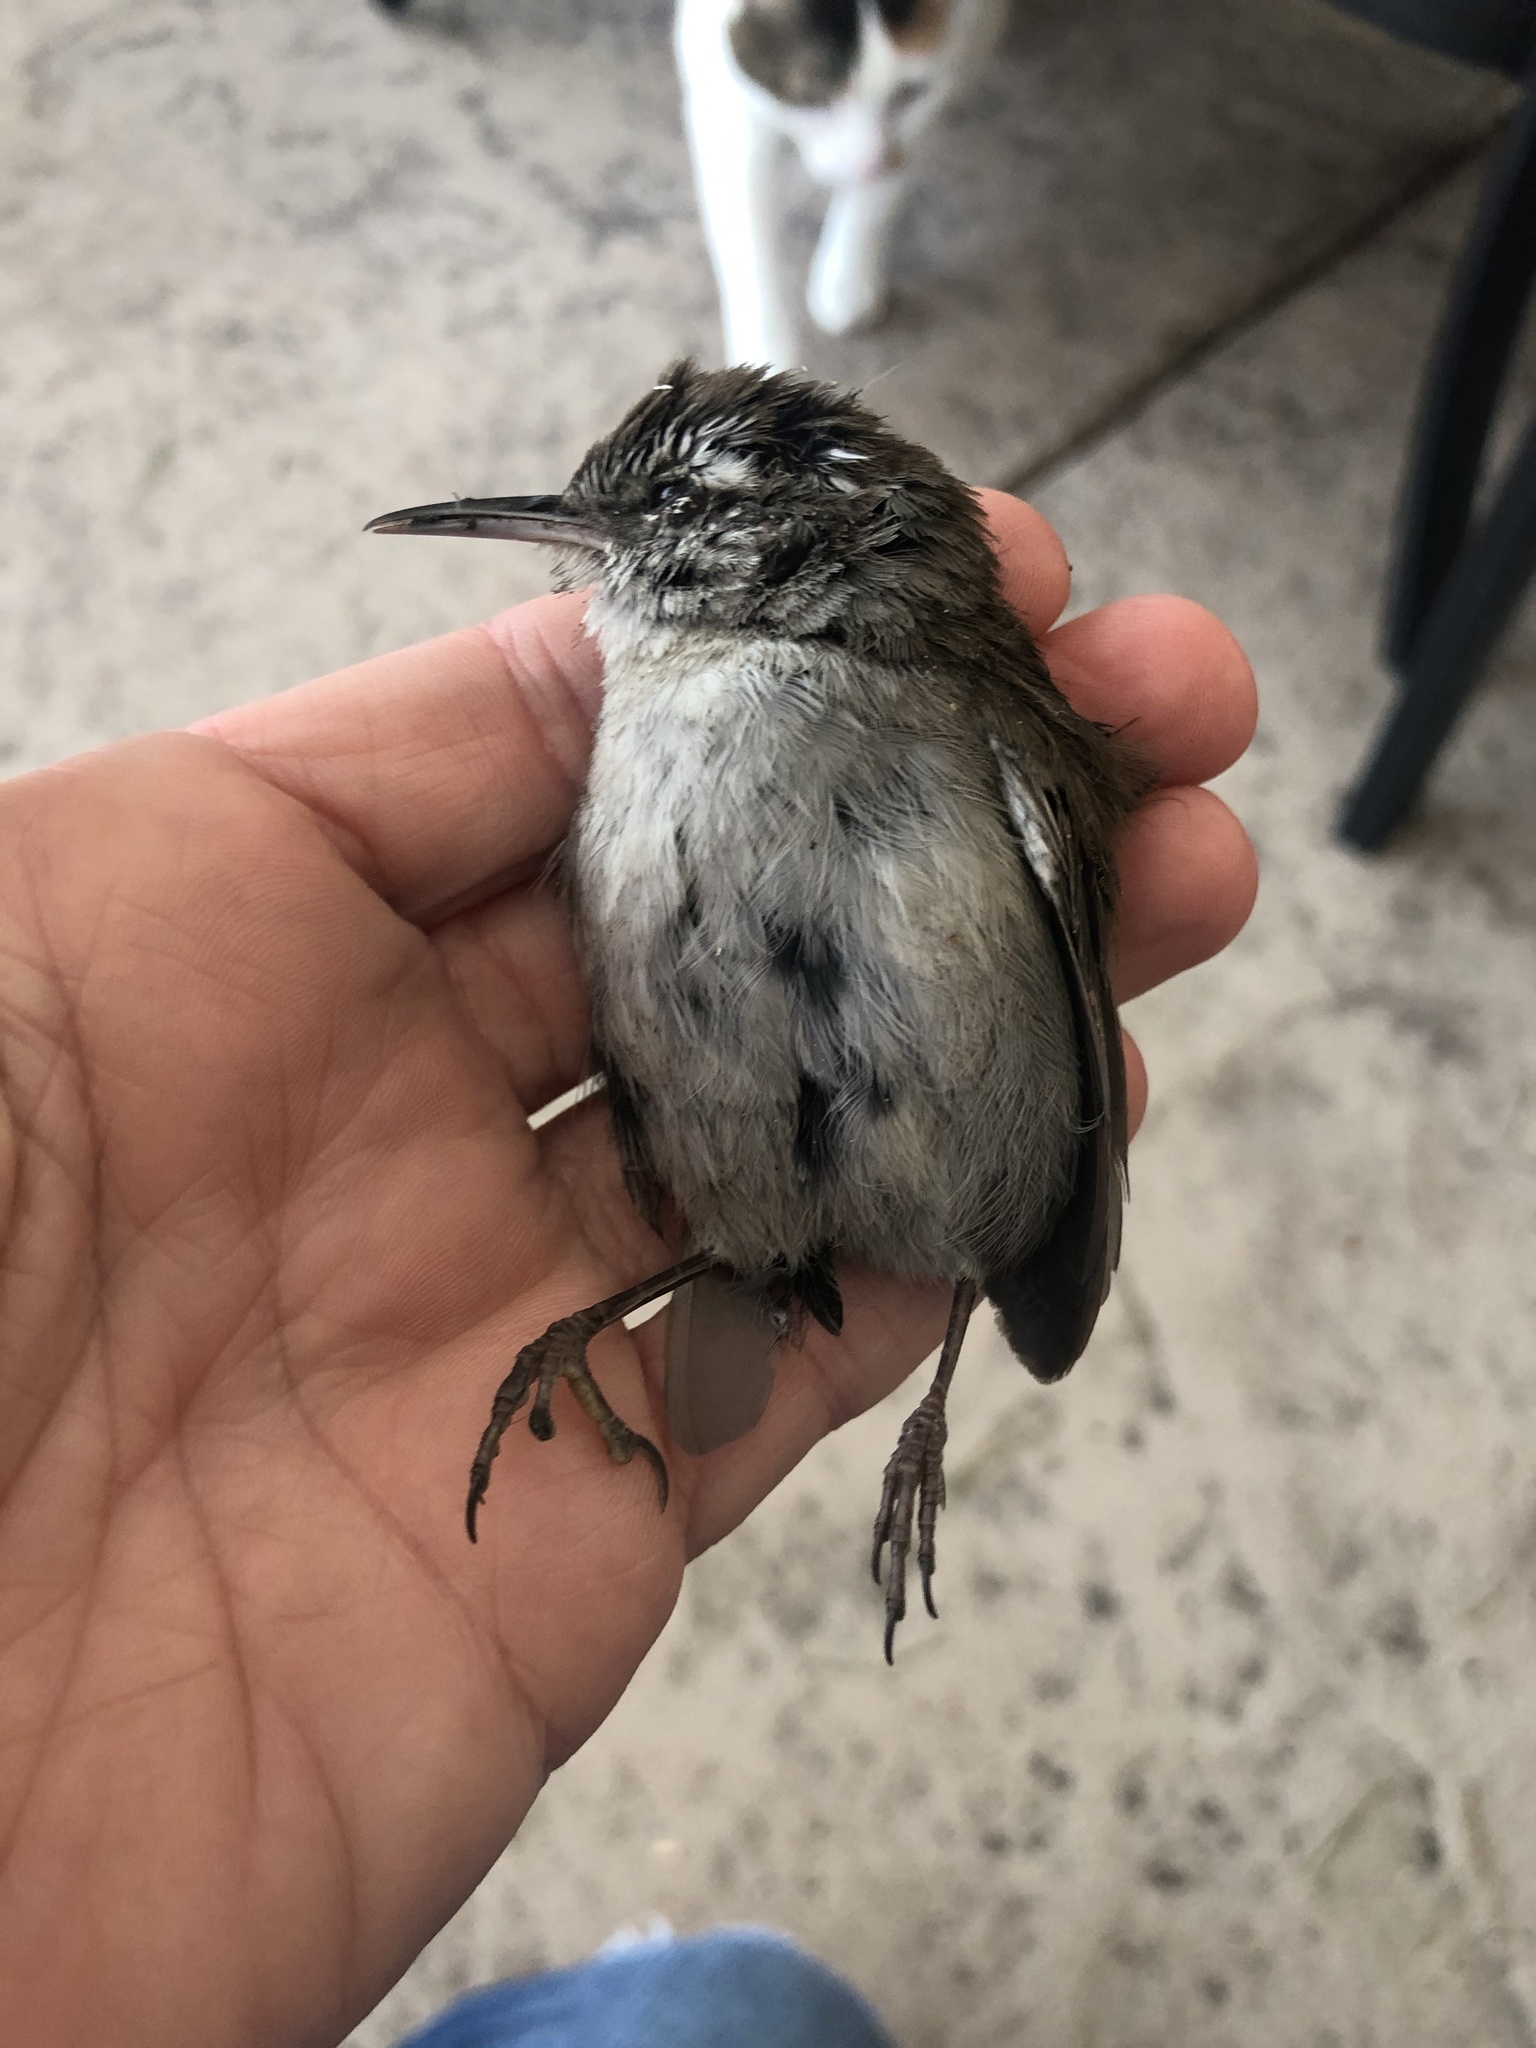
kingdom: Animalia
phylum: Chordata
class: Aves
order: Passeriformes
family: Troglodytidae
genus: Thryomanes
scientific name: Thryomanes bewickii
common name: Bewick's wren
